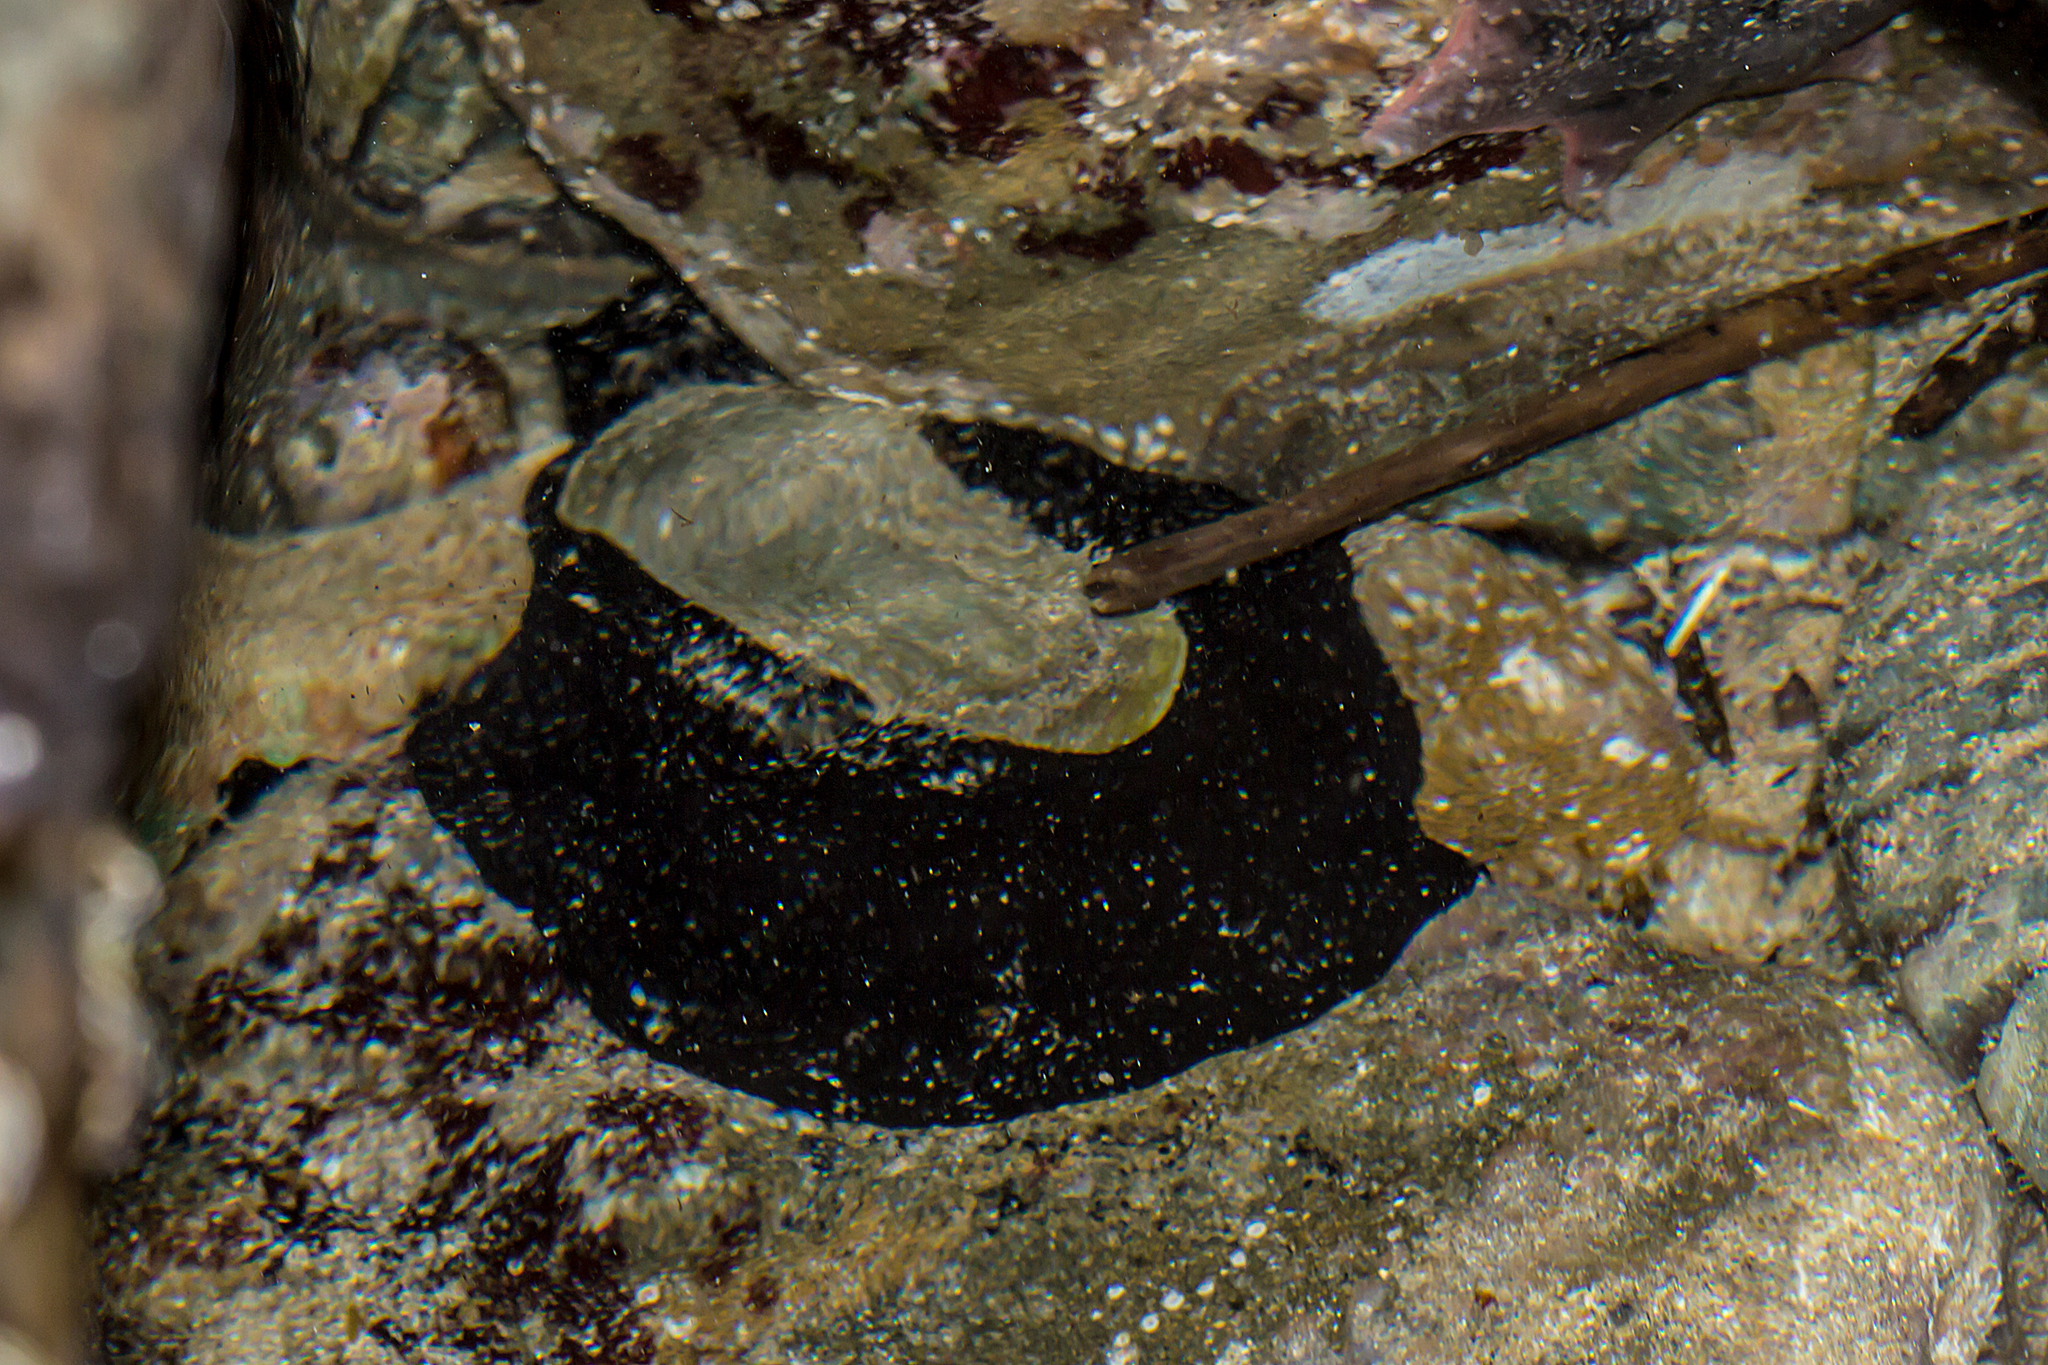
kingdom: Animalia
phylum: Mollusca
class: Gastropoda
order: Lepetellida
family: Fissurellidae
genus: Scutus
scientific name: Scutus antipodes
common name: Duckbill shell
